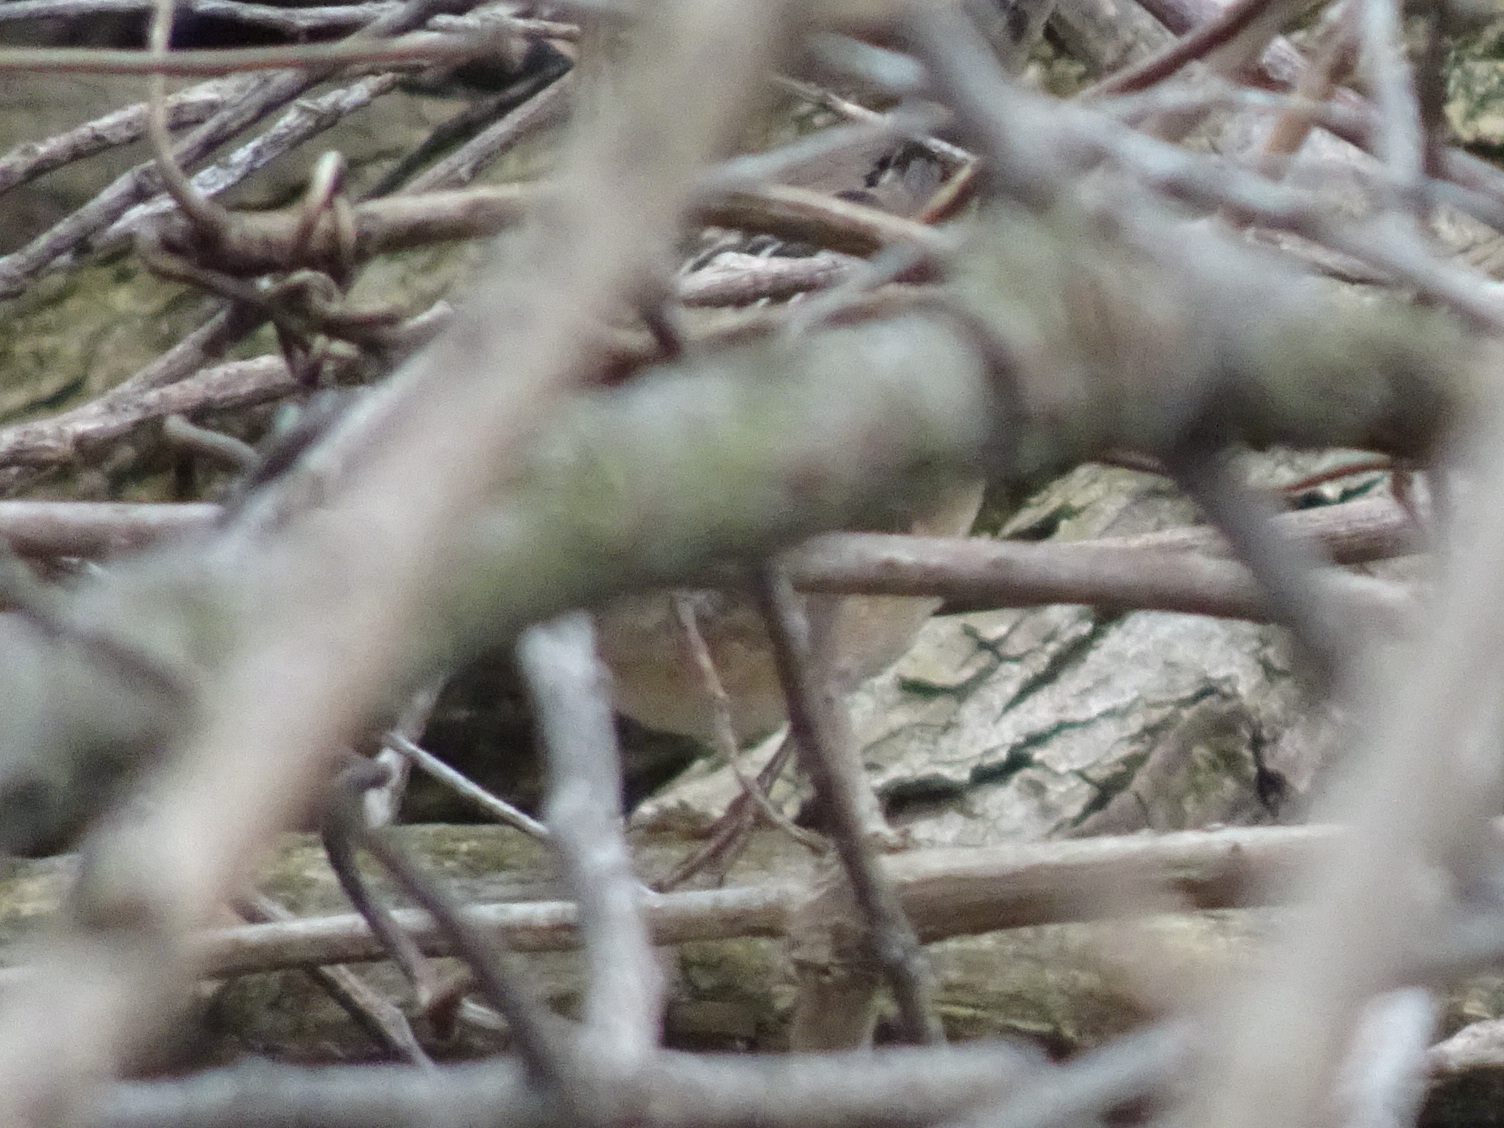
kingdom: Animalia
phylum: Chordata
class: Aves
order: Passeriformes
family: Troglodytidae
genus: Cistothorus
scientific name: Cistothorus platensis
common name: Sedge wren
